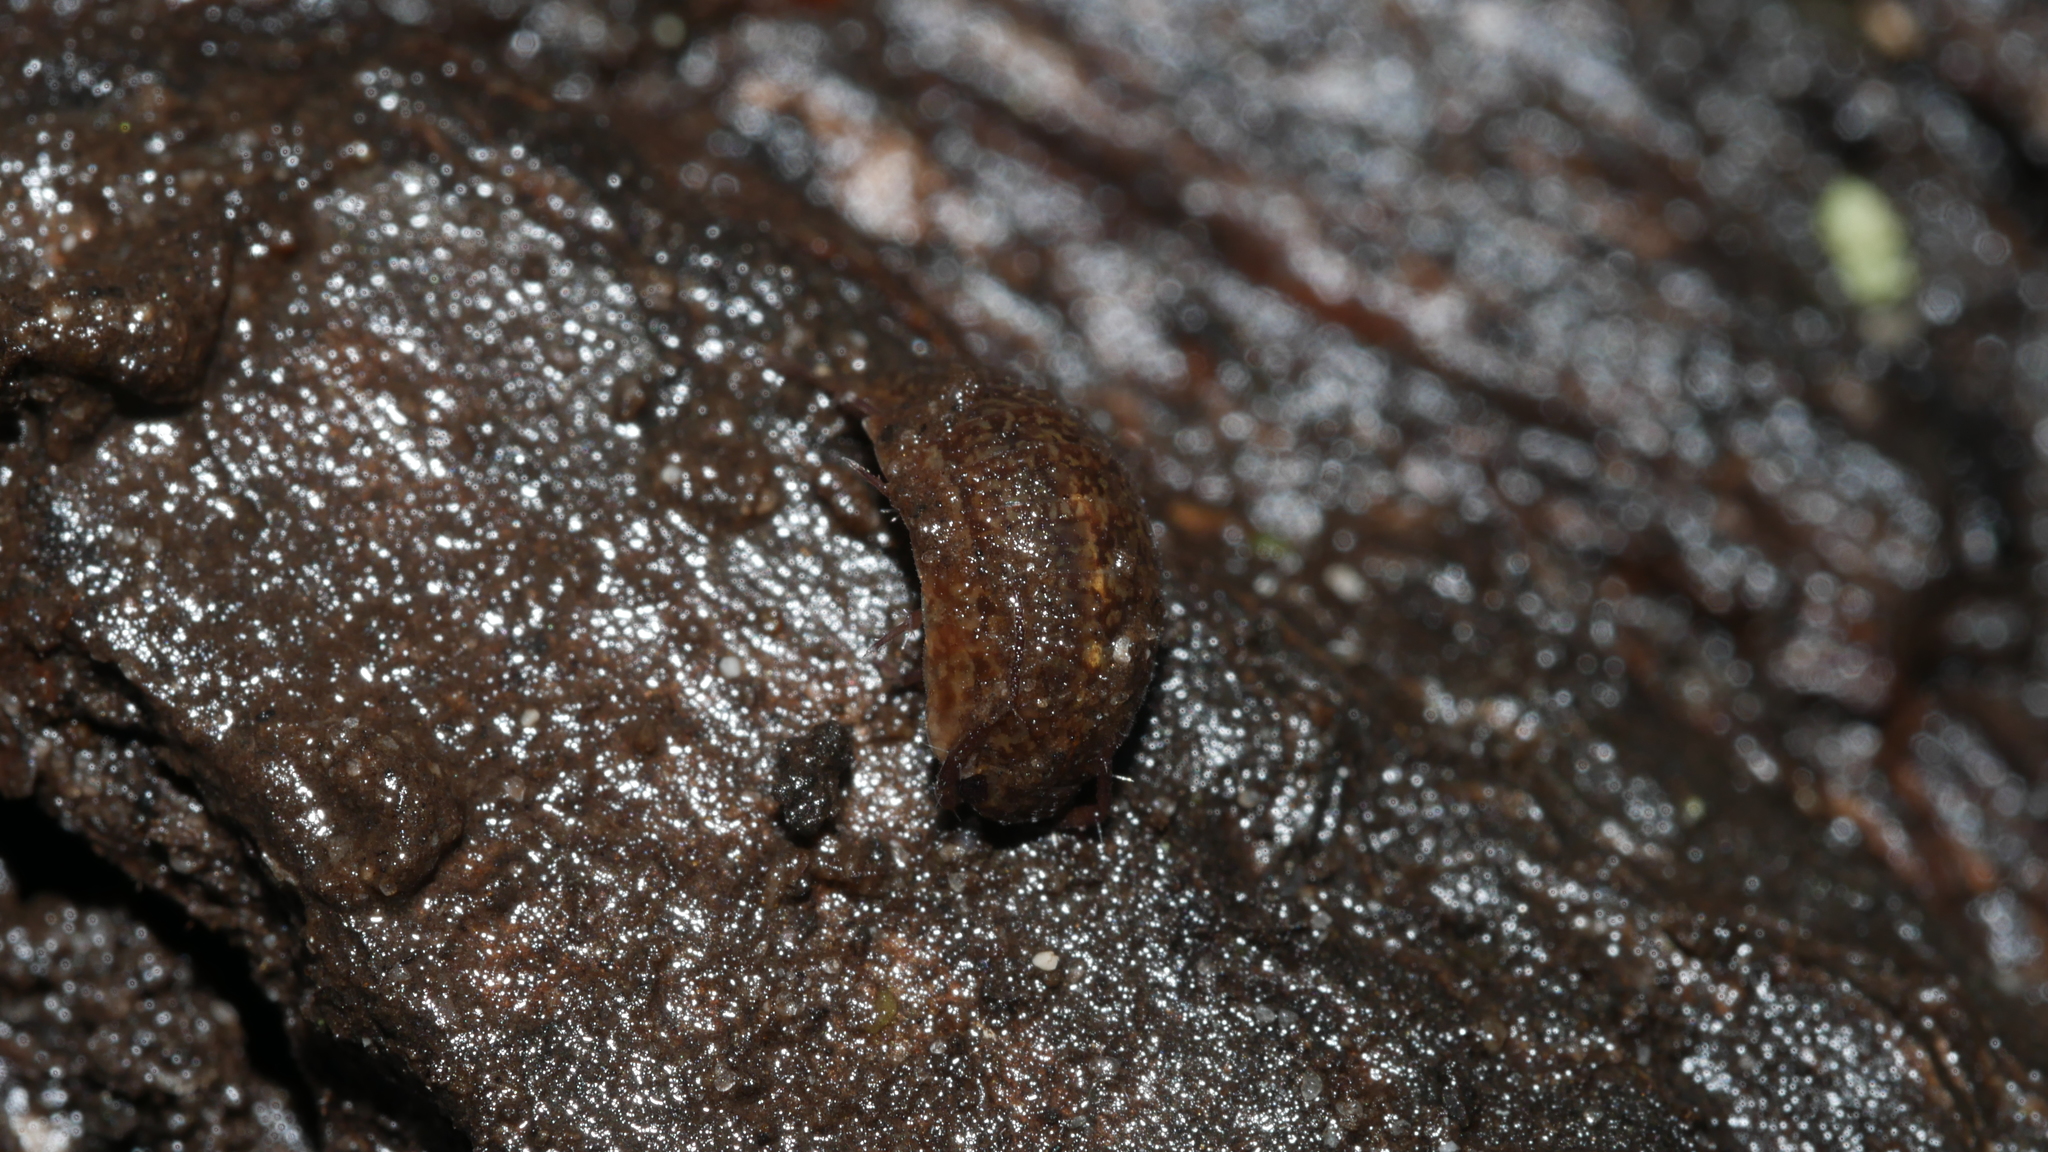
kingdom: Animalia
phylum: Arthropoda
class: Malacostraca
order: Isopoda
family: Ligiidae
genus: Ligidium
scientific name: Ligidium elrodii
